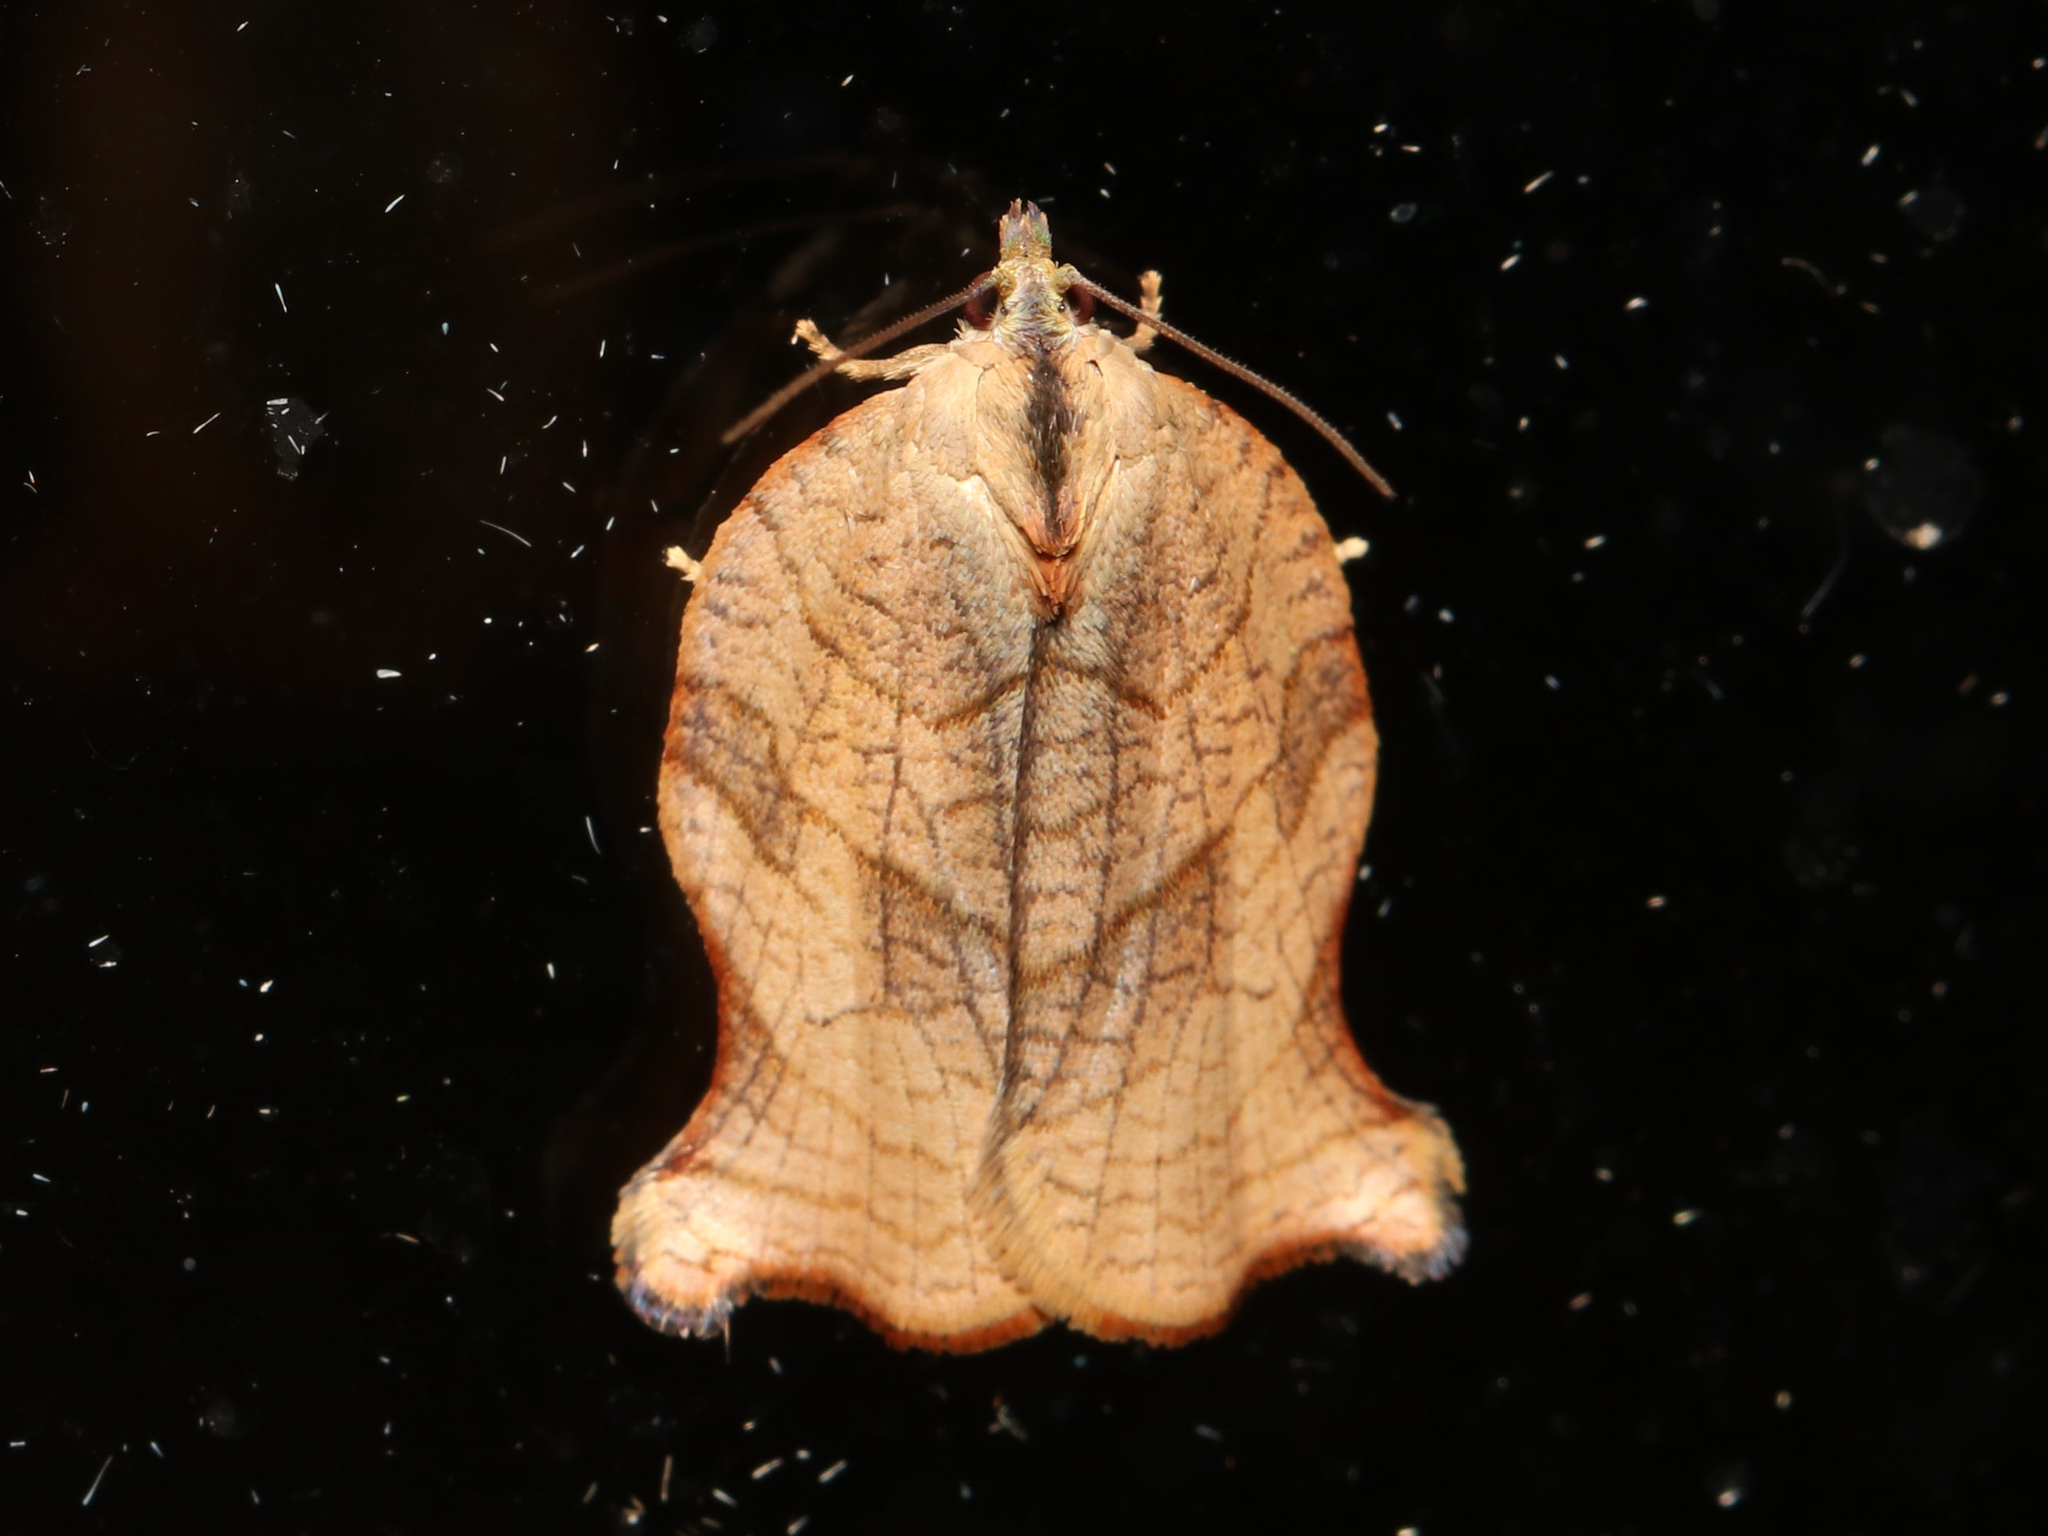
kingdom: Animalia
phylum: Arthropoda
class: Insecta
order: Lepidoptera
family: Tortricidae
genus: Archips
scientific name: Archips purpurana
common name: Omnivorous leafroller
